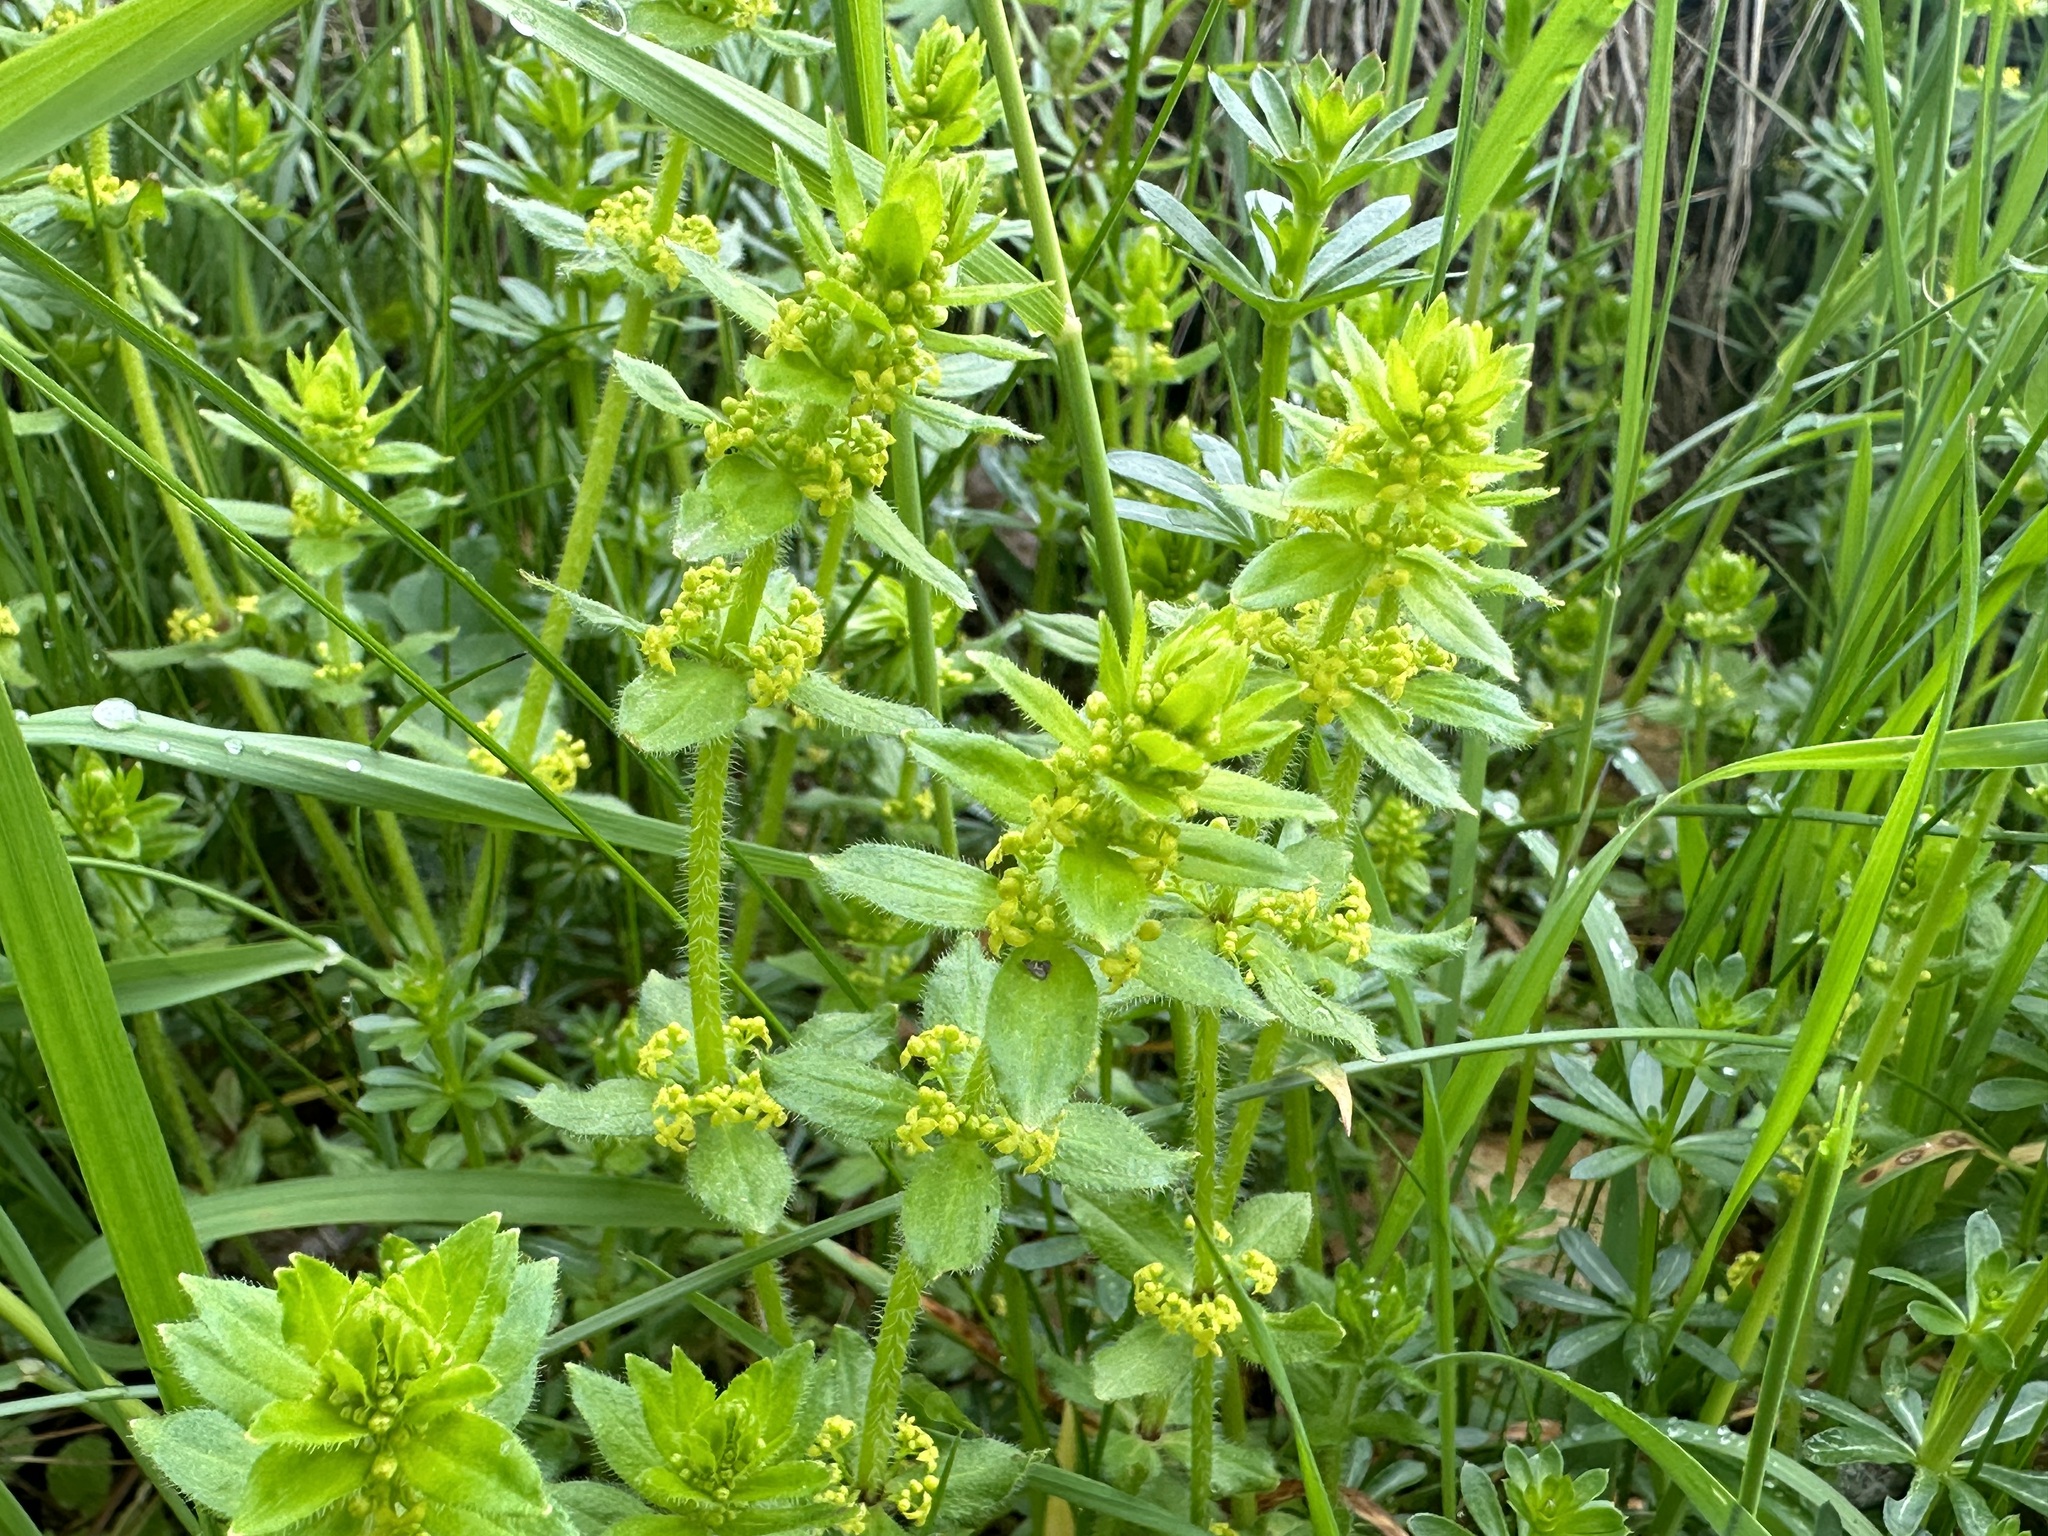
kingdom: Plantae
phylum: Tracheophyta
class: Magnoliopsida
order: Gentianales
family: Rubiaceae
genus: Cruciata
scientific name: Cruciata laevipes
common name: Crosswort
